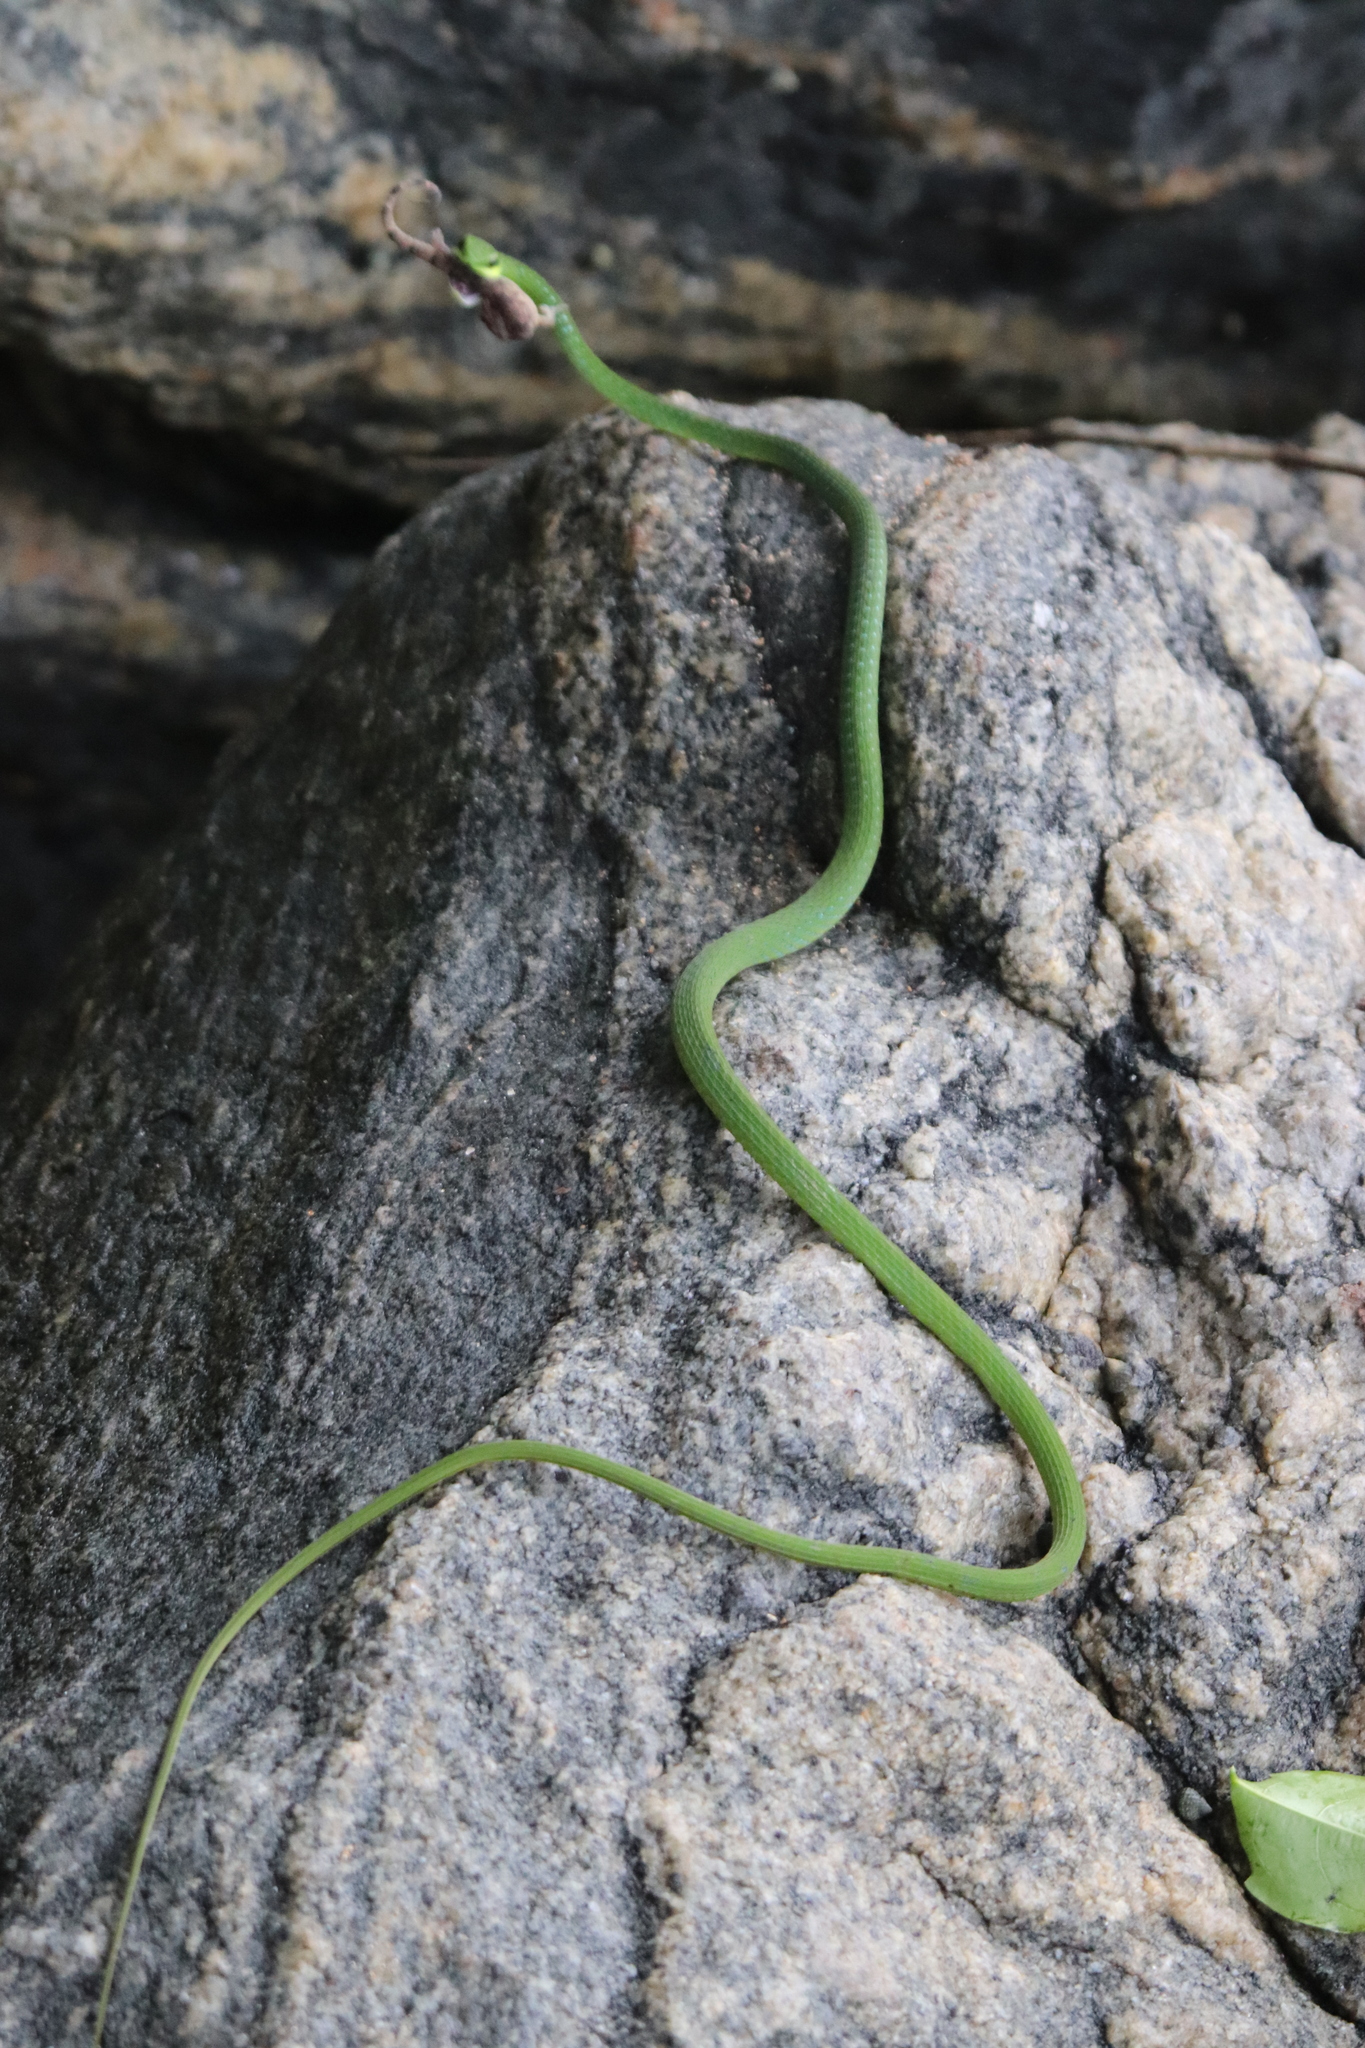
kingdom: Animalia
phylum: Chordata
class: Squamata
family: Colubridae
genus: Hapsidophrys
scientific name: Hapsidophrys smaragdinus
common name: Emerald snake
